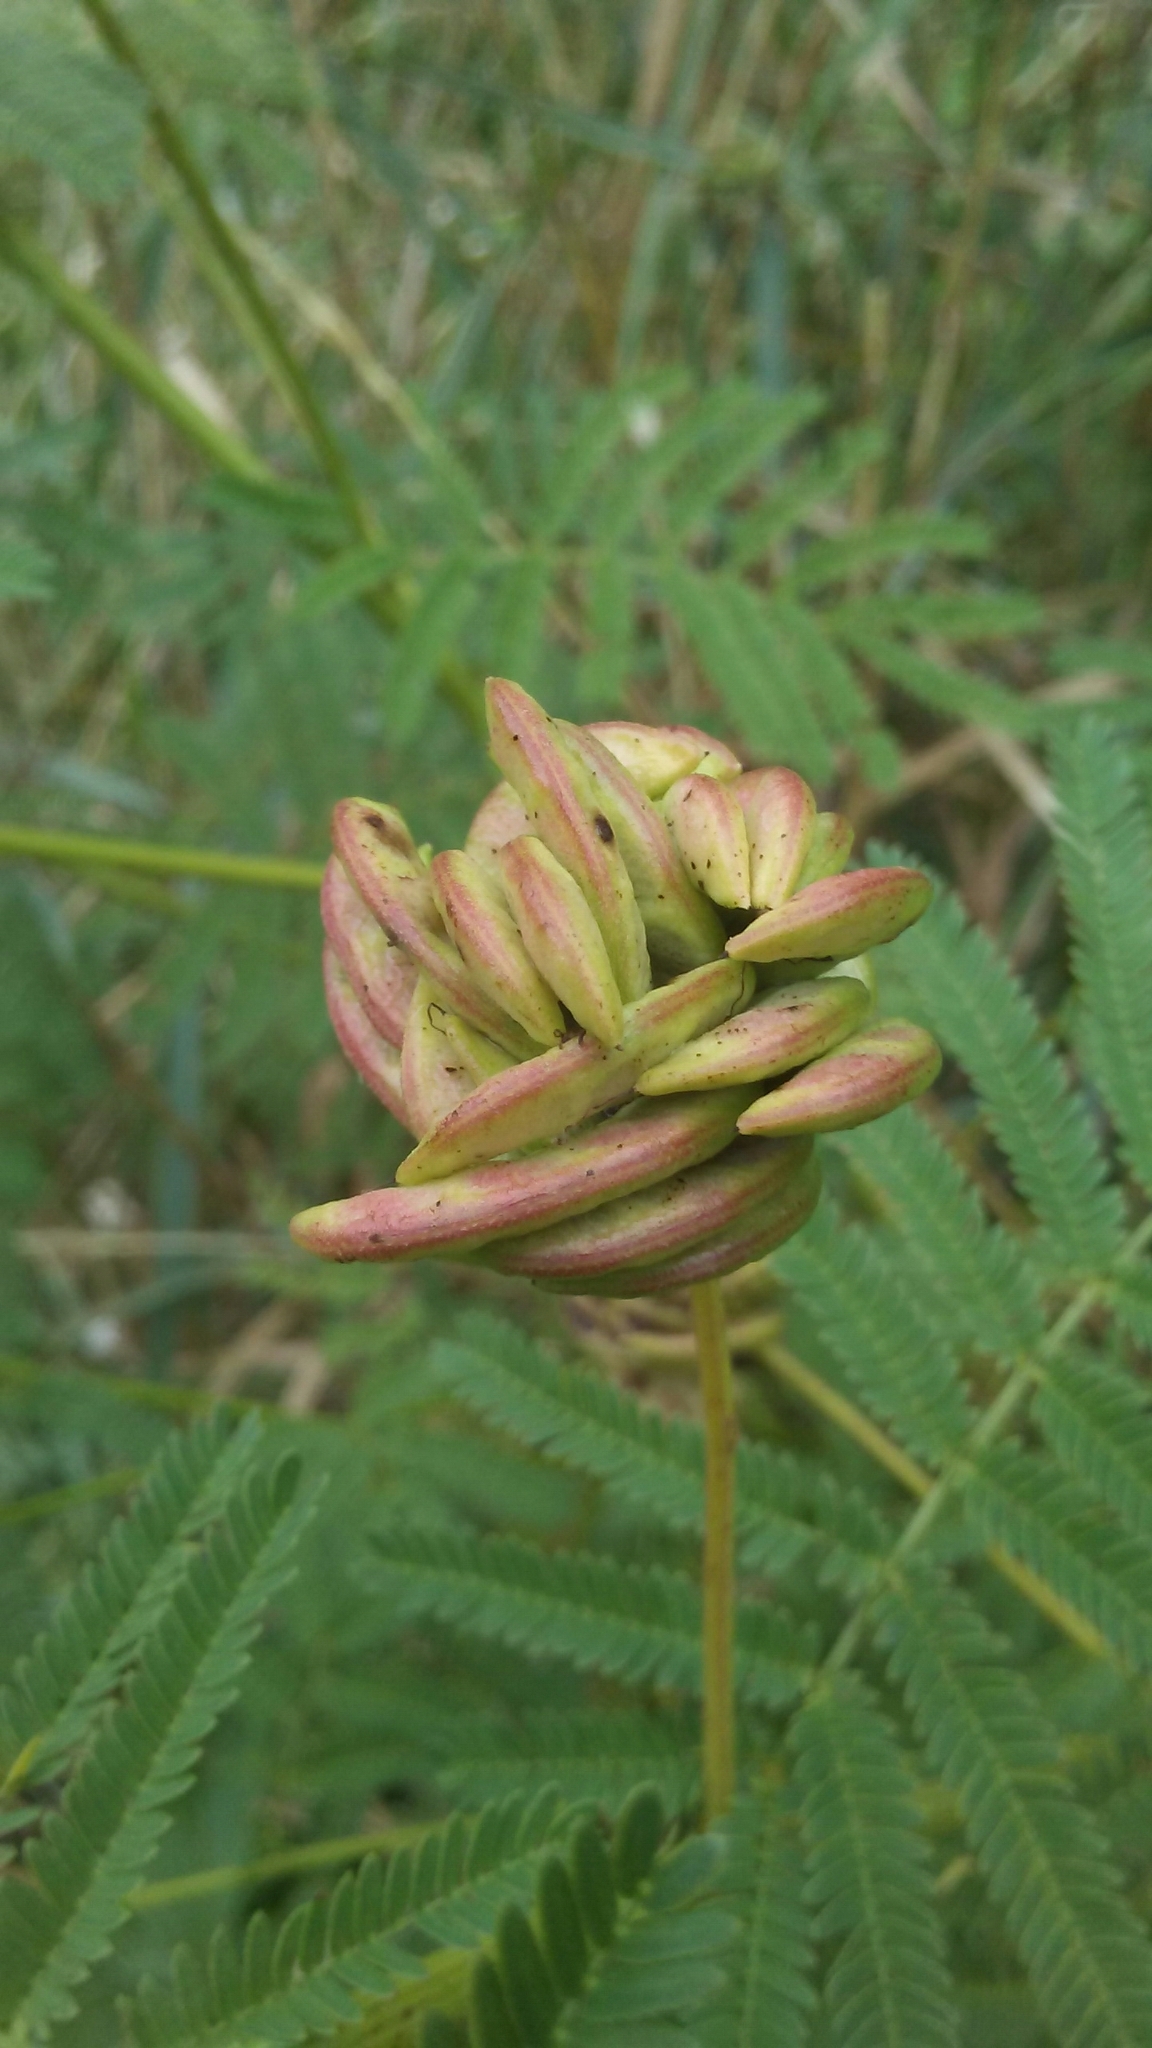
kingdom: Plantae
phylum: Tracheophyta
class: Magnoliopsida
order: Fabales
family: Fabaceae
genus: Desmanthus
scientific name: Desmanthus illinoensis
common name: Illinois bundle-flower
